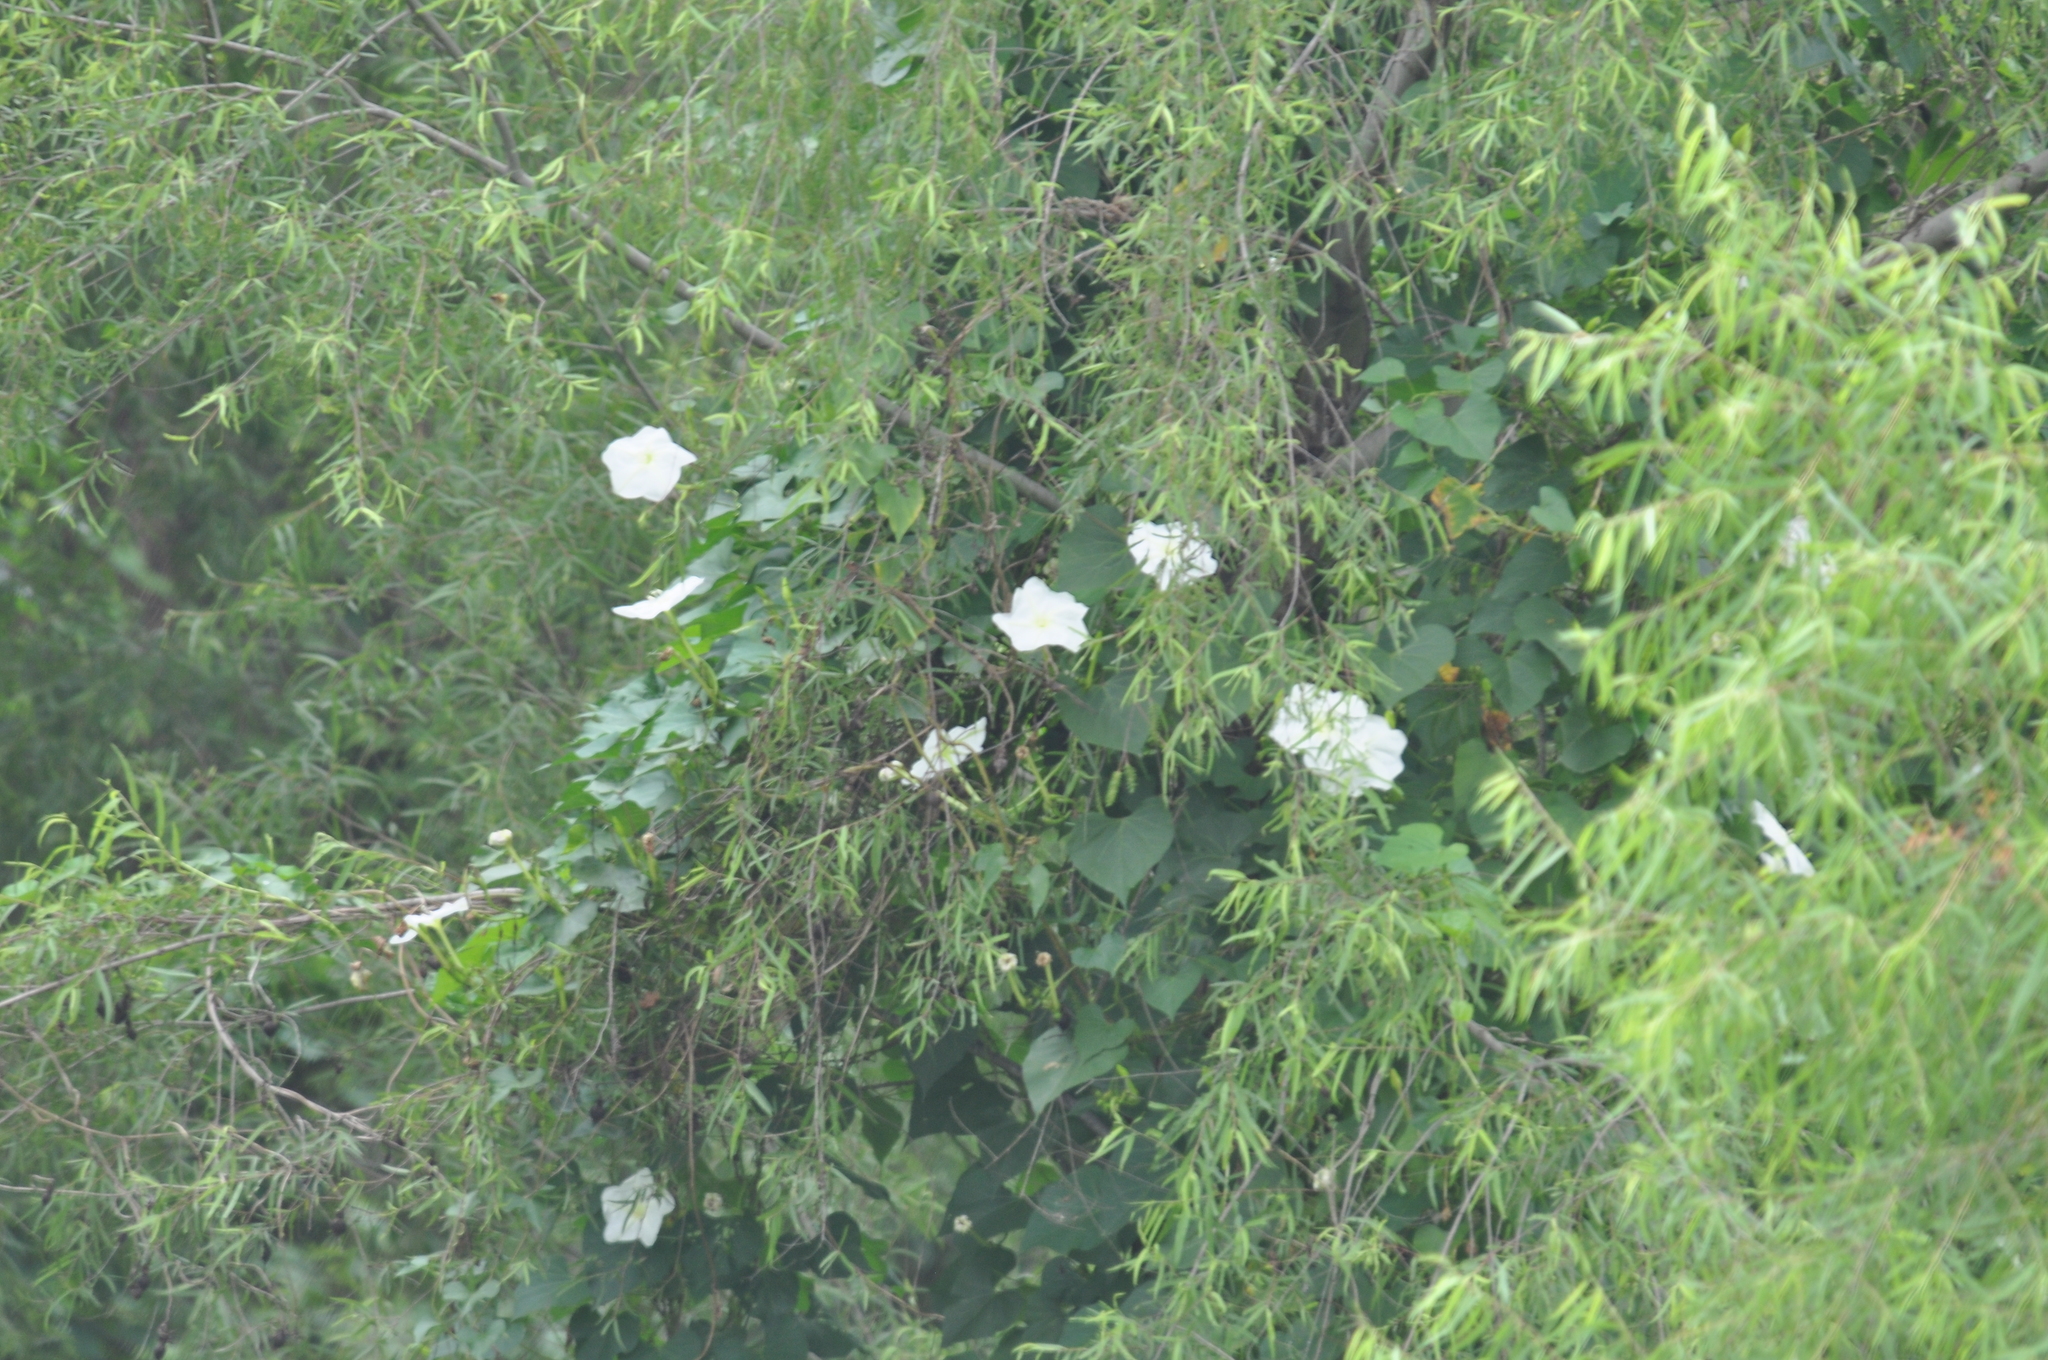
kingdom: Plantae
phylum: Tracheophyta
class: Magnoliopsida
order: Solanales
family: Convolvulaceae
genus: Ipomoea
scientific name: Ipomoea alba
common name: Moonflower
